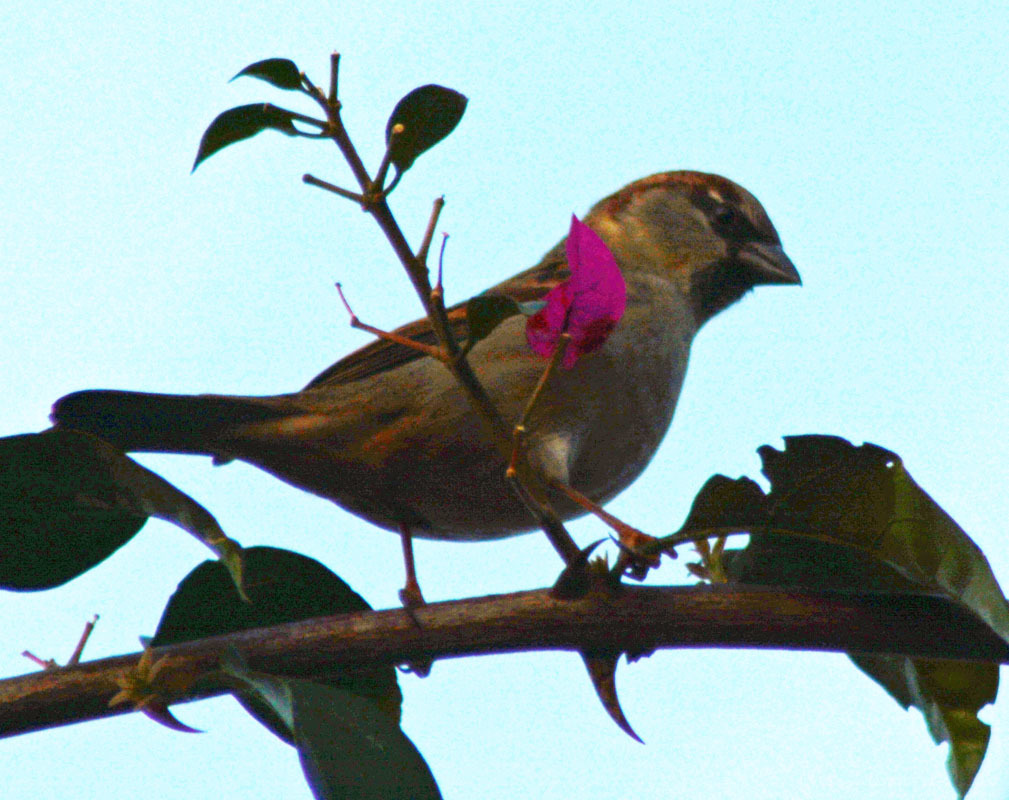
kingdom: Animalia
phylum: Chordata
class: Aves
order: Passeriformes
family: Passeridae
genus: Passer
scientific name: Passer domesticus
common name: House sparrow
